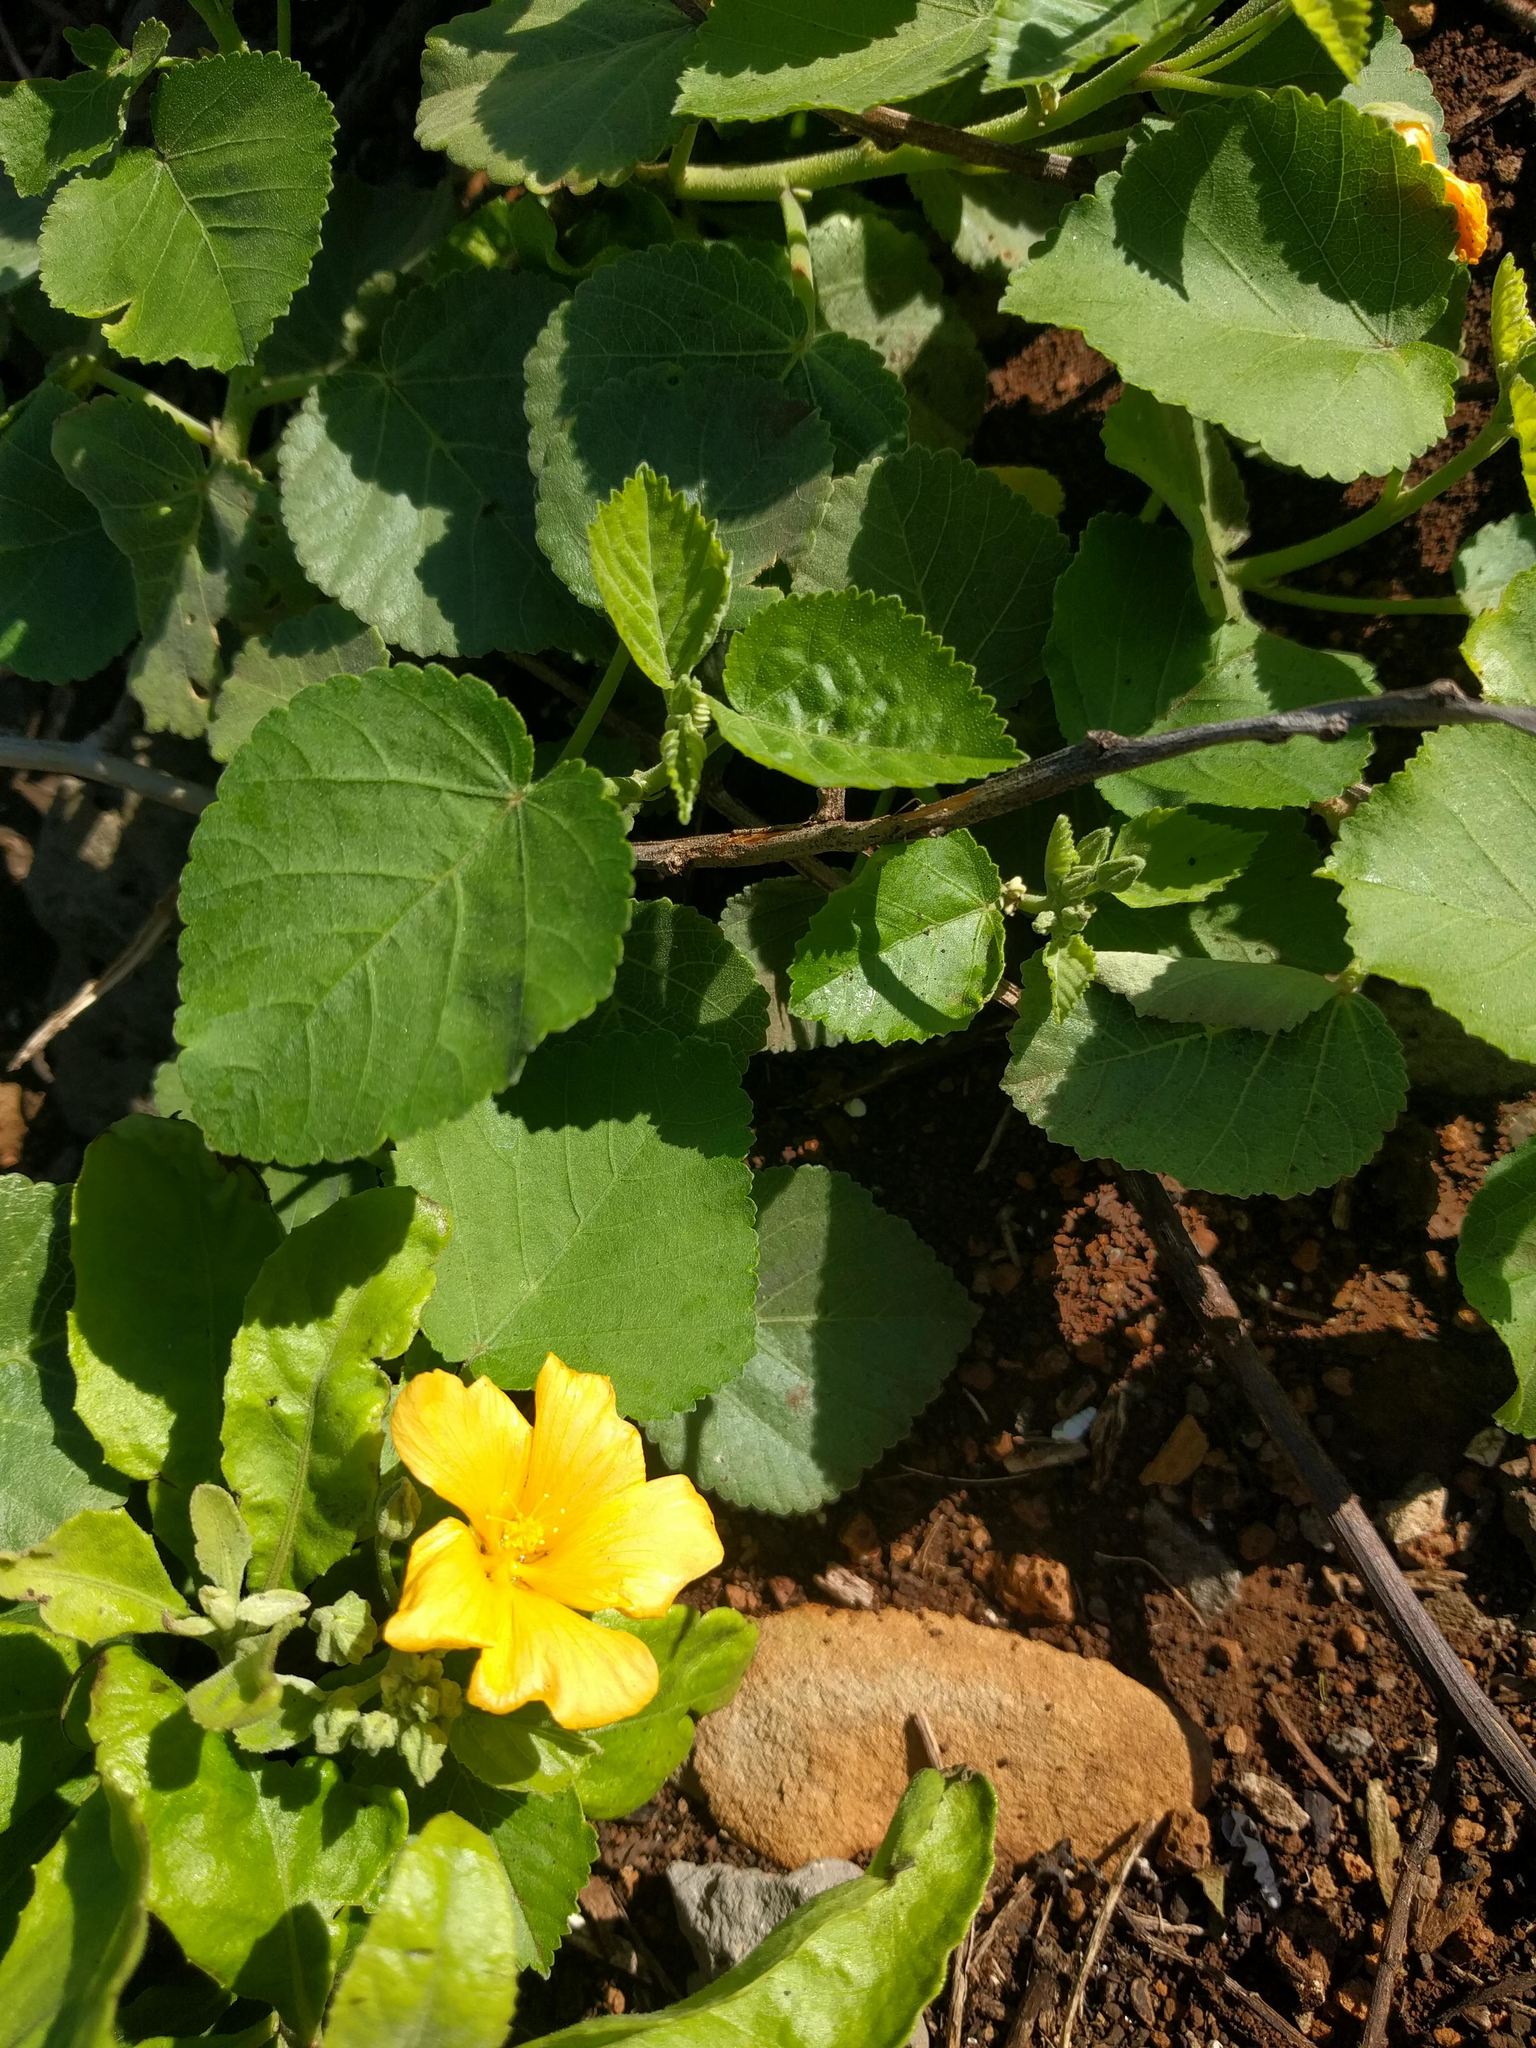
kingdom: Plantae
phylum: Tracheophyta
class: Magnoliopsida
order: Malvales
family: Malvaceae
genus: Sida
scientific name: Sida fallax
